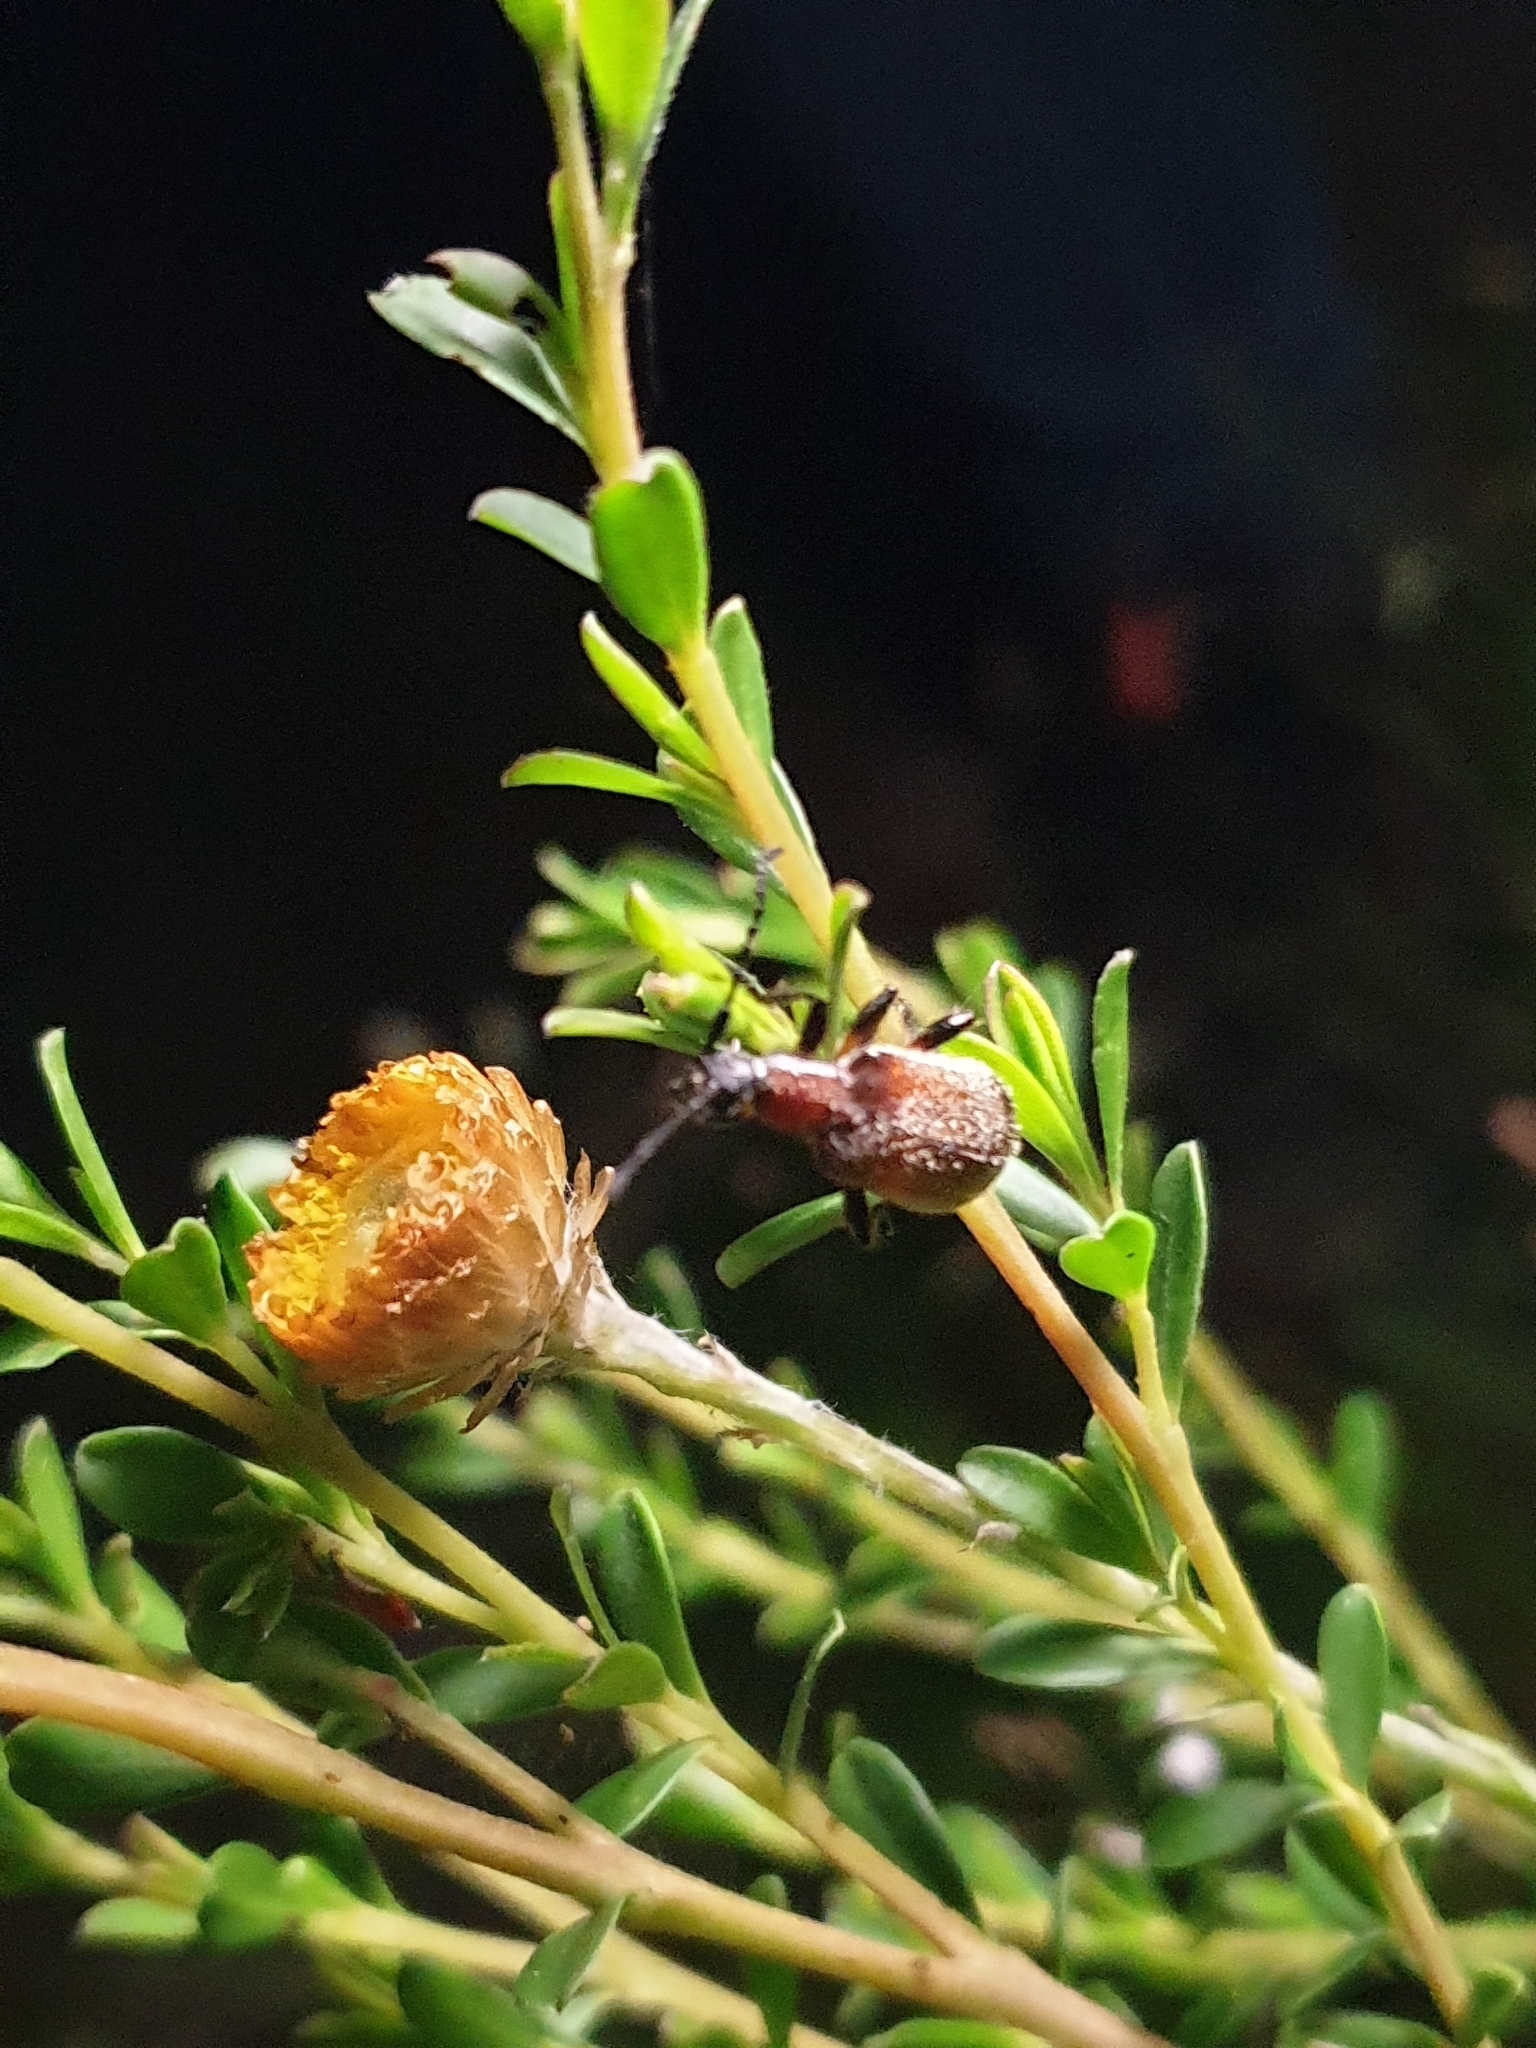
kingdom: Animalia
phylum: Arthropoda
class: Insecta
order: Coleoptera
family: Tenebrionidae
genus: Ecnolagria
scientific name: Ecnolagria
